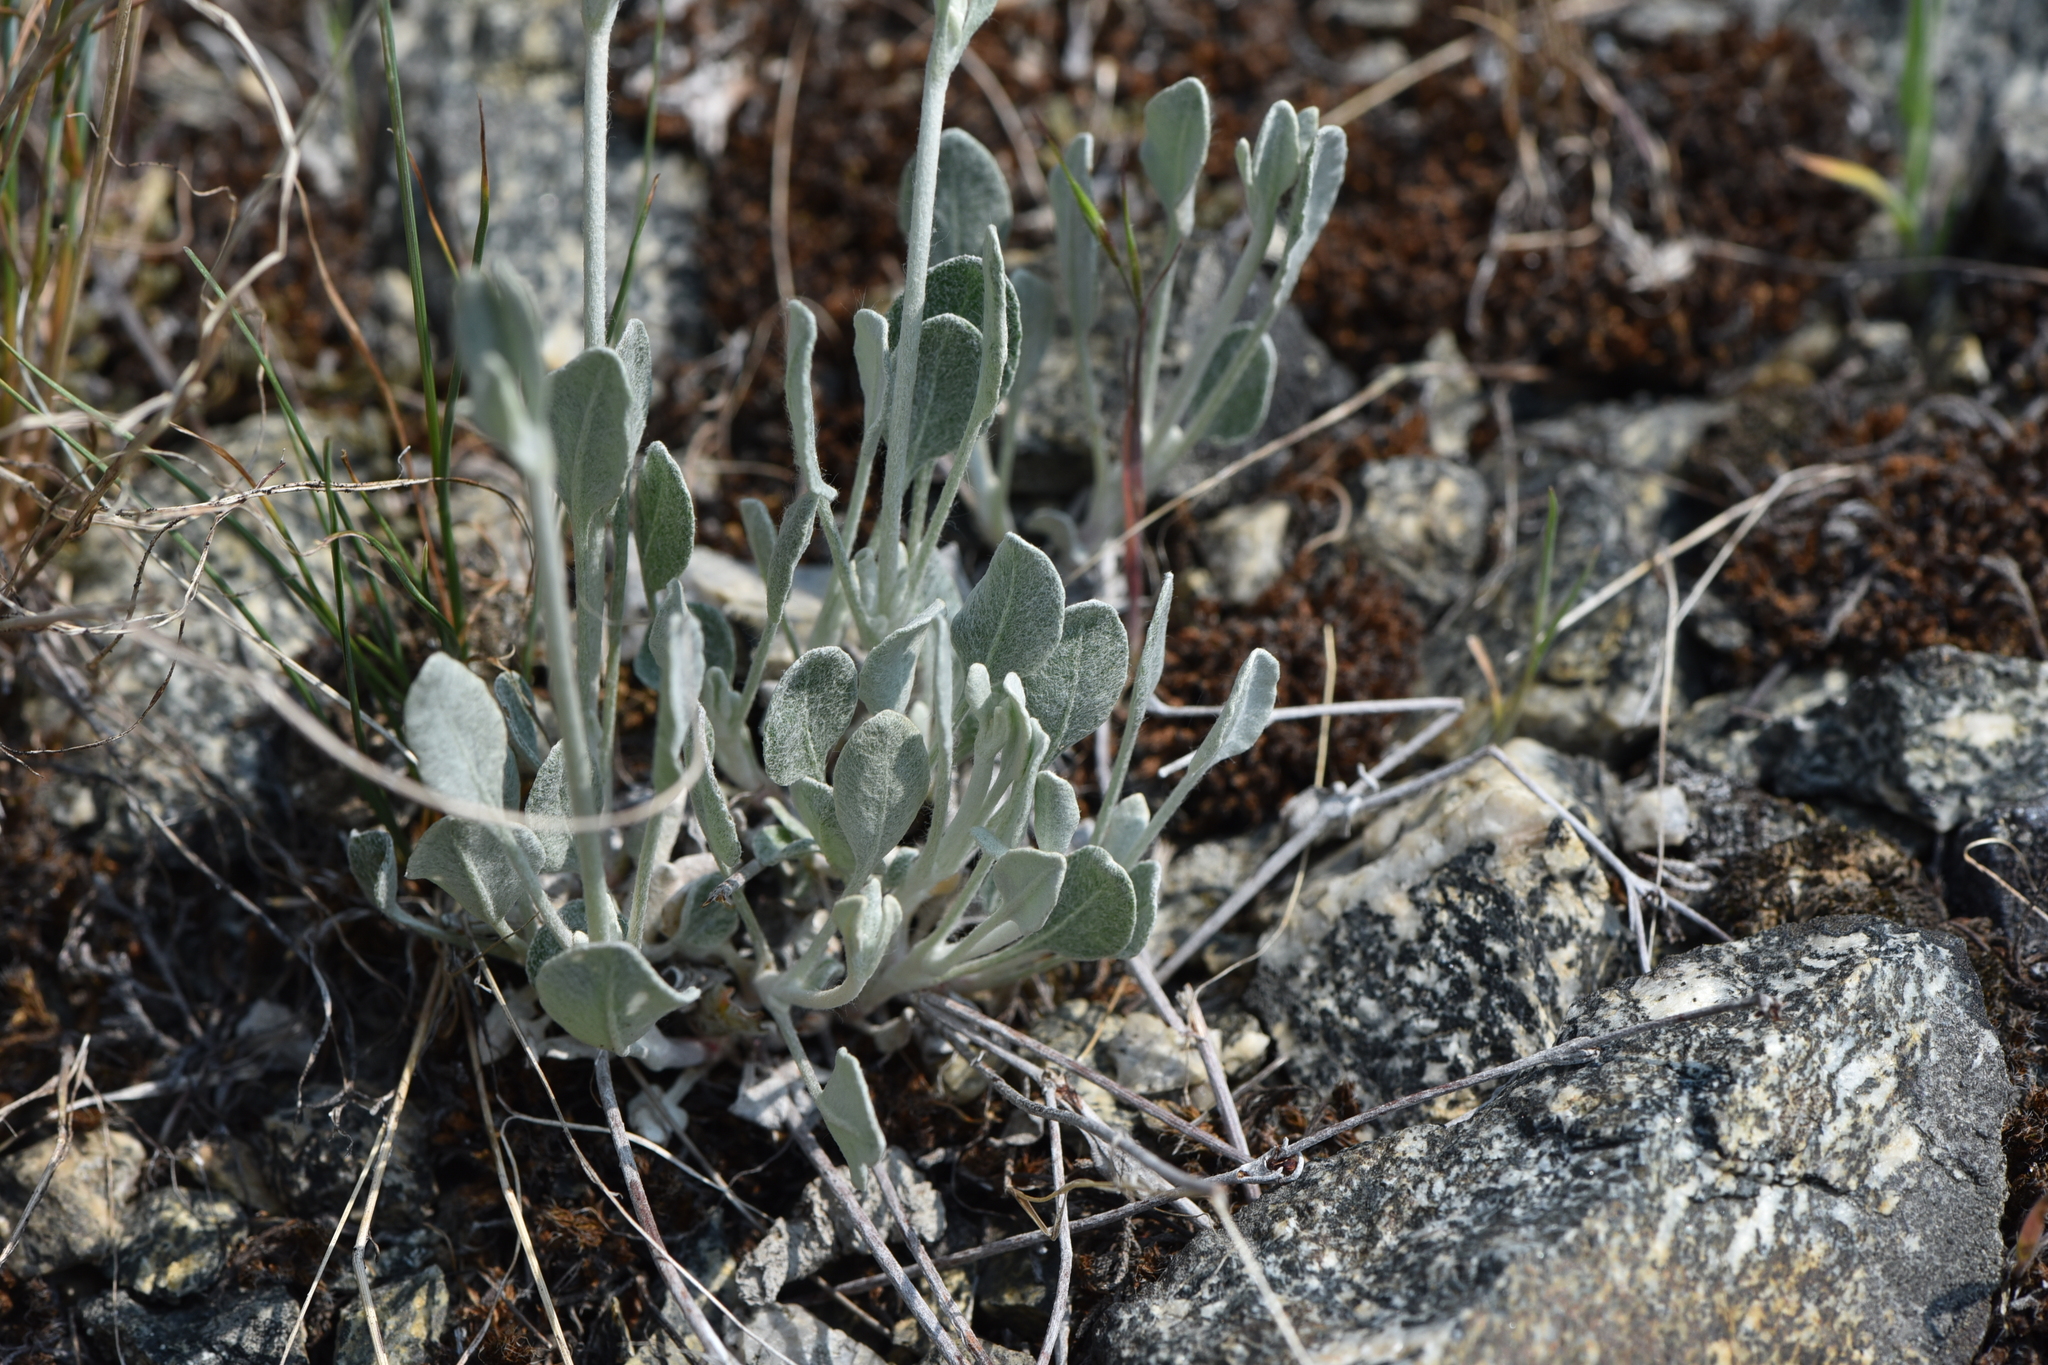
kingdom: Plantae
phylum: Tracheophyta
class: Magnoliopsida
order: Caryophyllales
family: Polygonaceae
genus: Eriogonum
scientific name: Eriogonum niveum
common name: Snow wild buckwheat
